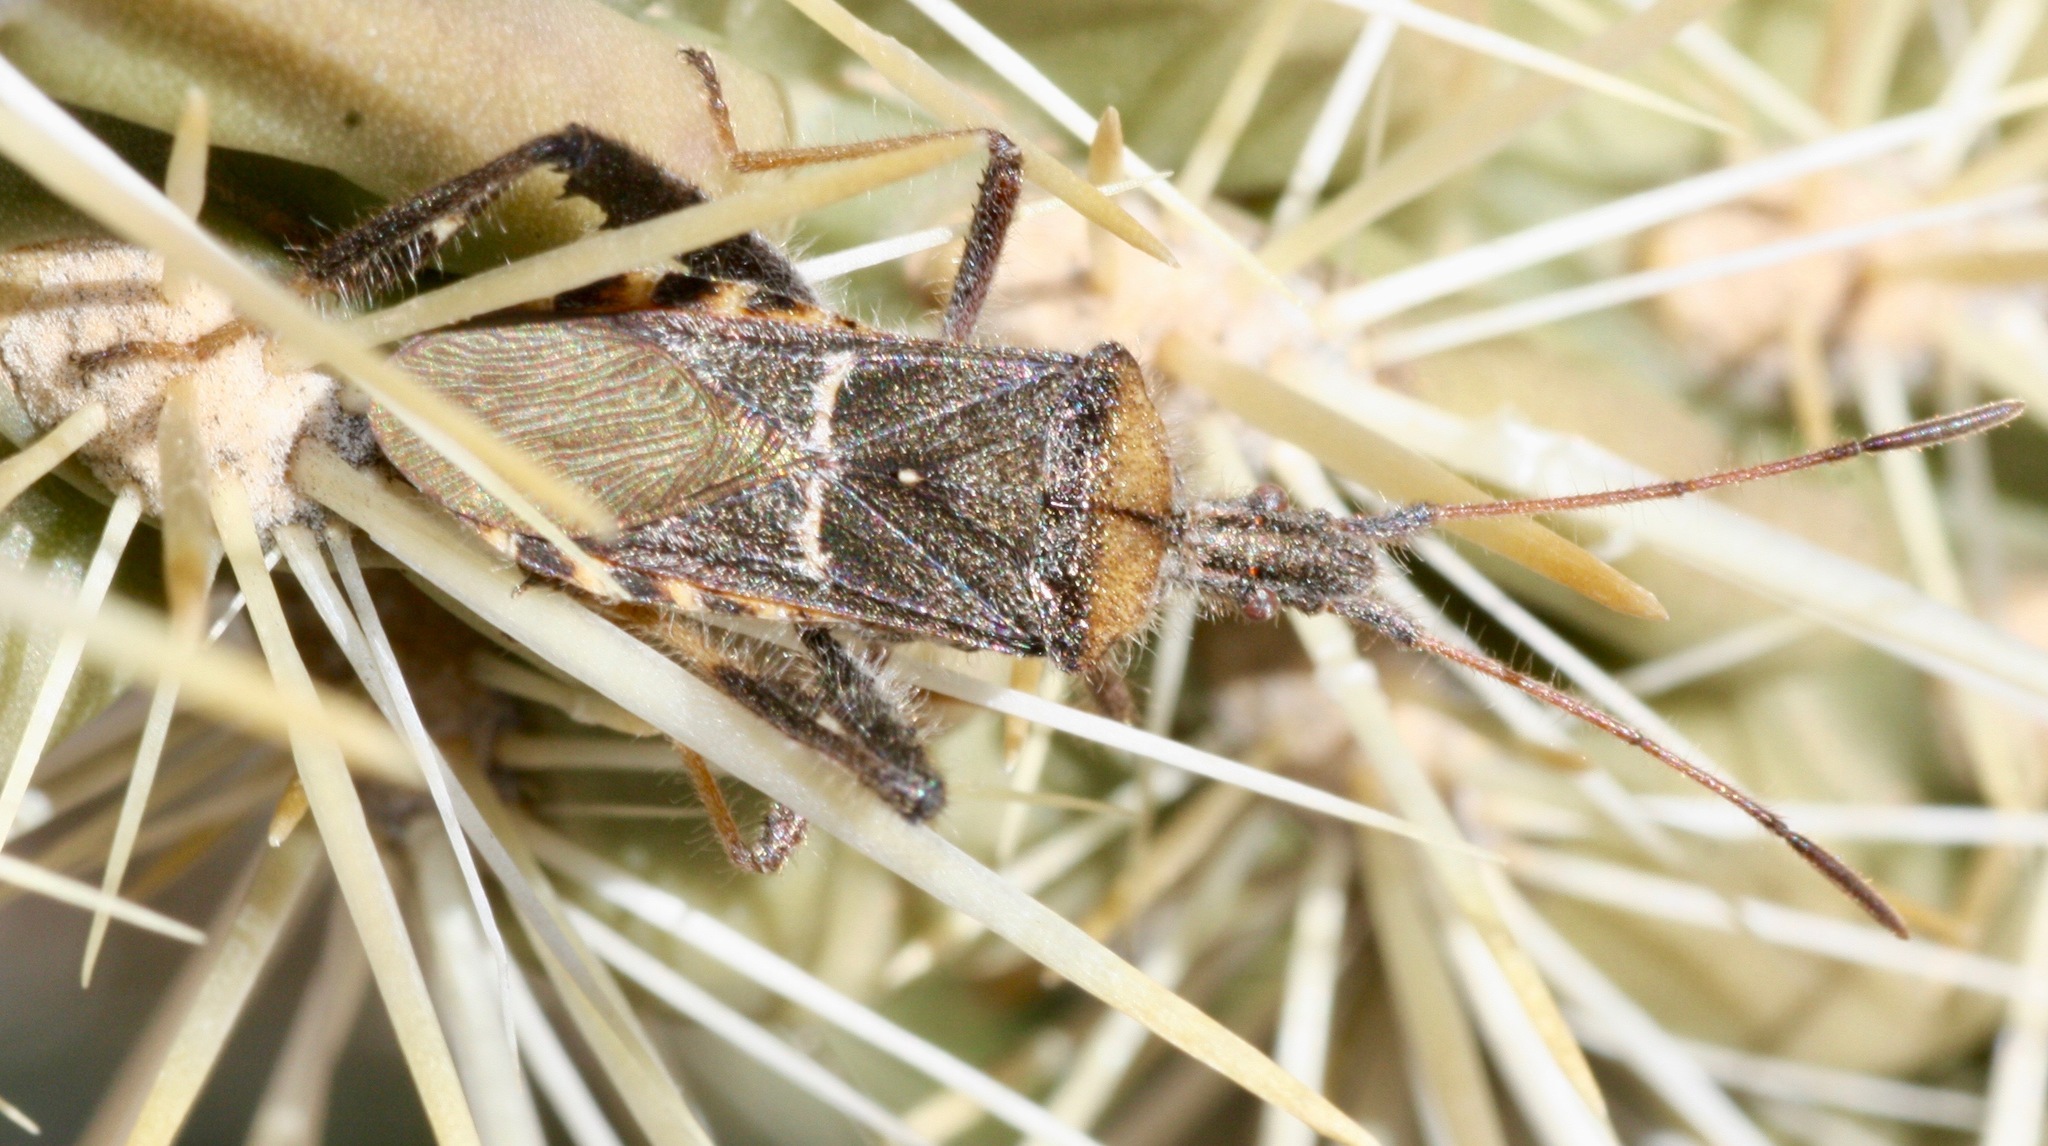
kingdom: Animalia
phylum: Arthropoda
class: Insecta
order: Hemiptera
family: Coreidae
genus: Narnia
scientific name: Narnia snowi
